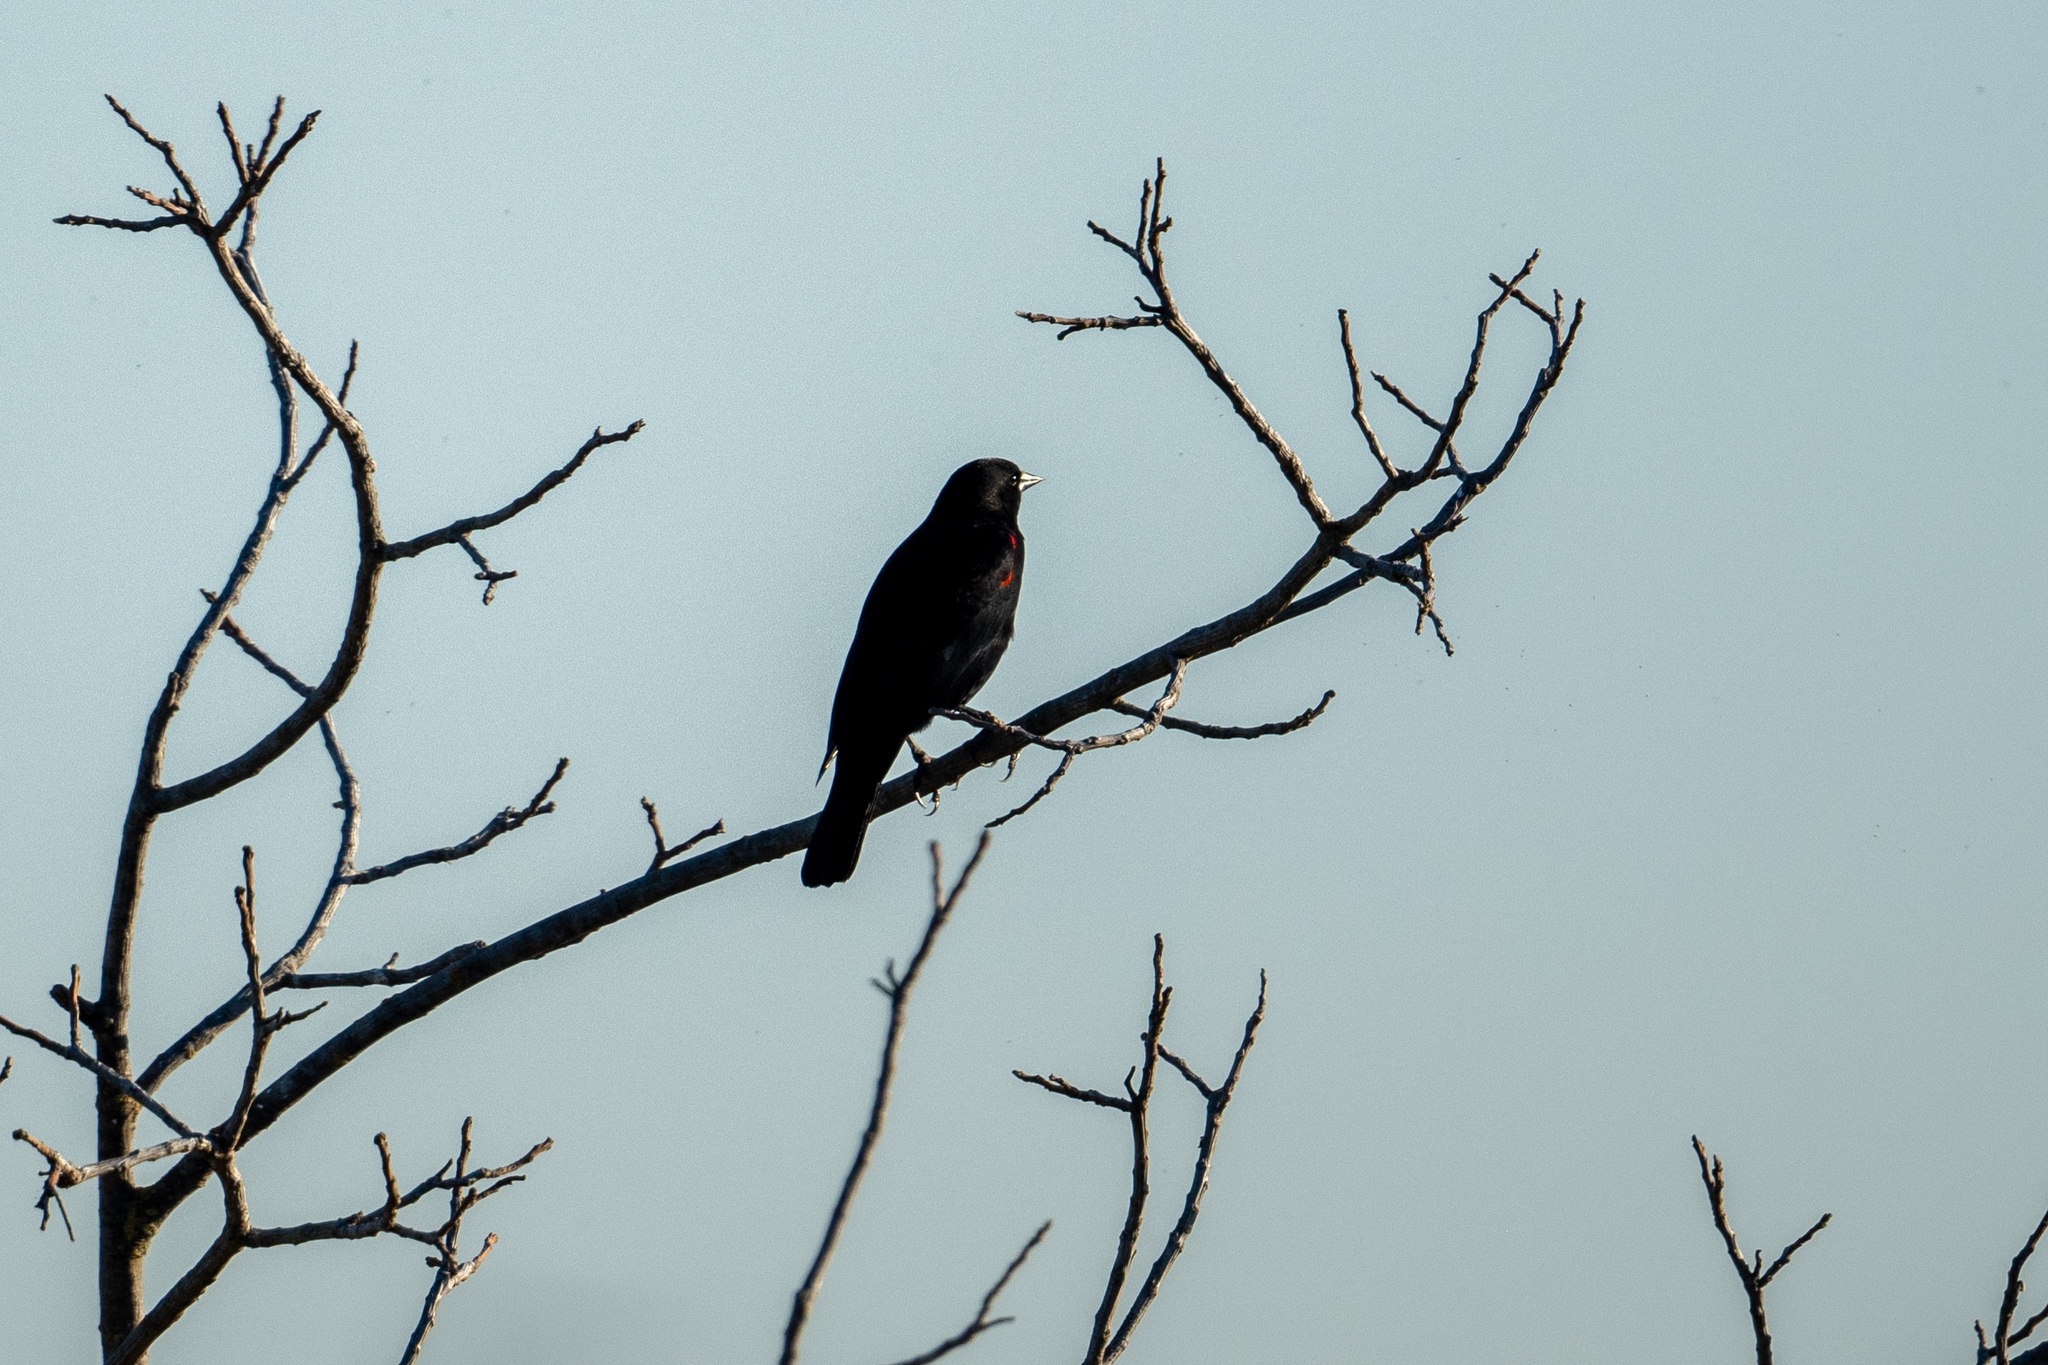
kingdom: Animalia
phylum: Chordata
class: Aves
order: Passeriformes
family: Icteridae
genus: Agelaius
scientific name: Agelaius phoeniceus
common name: Red-winged blackbird
